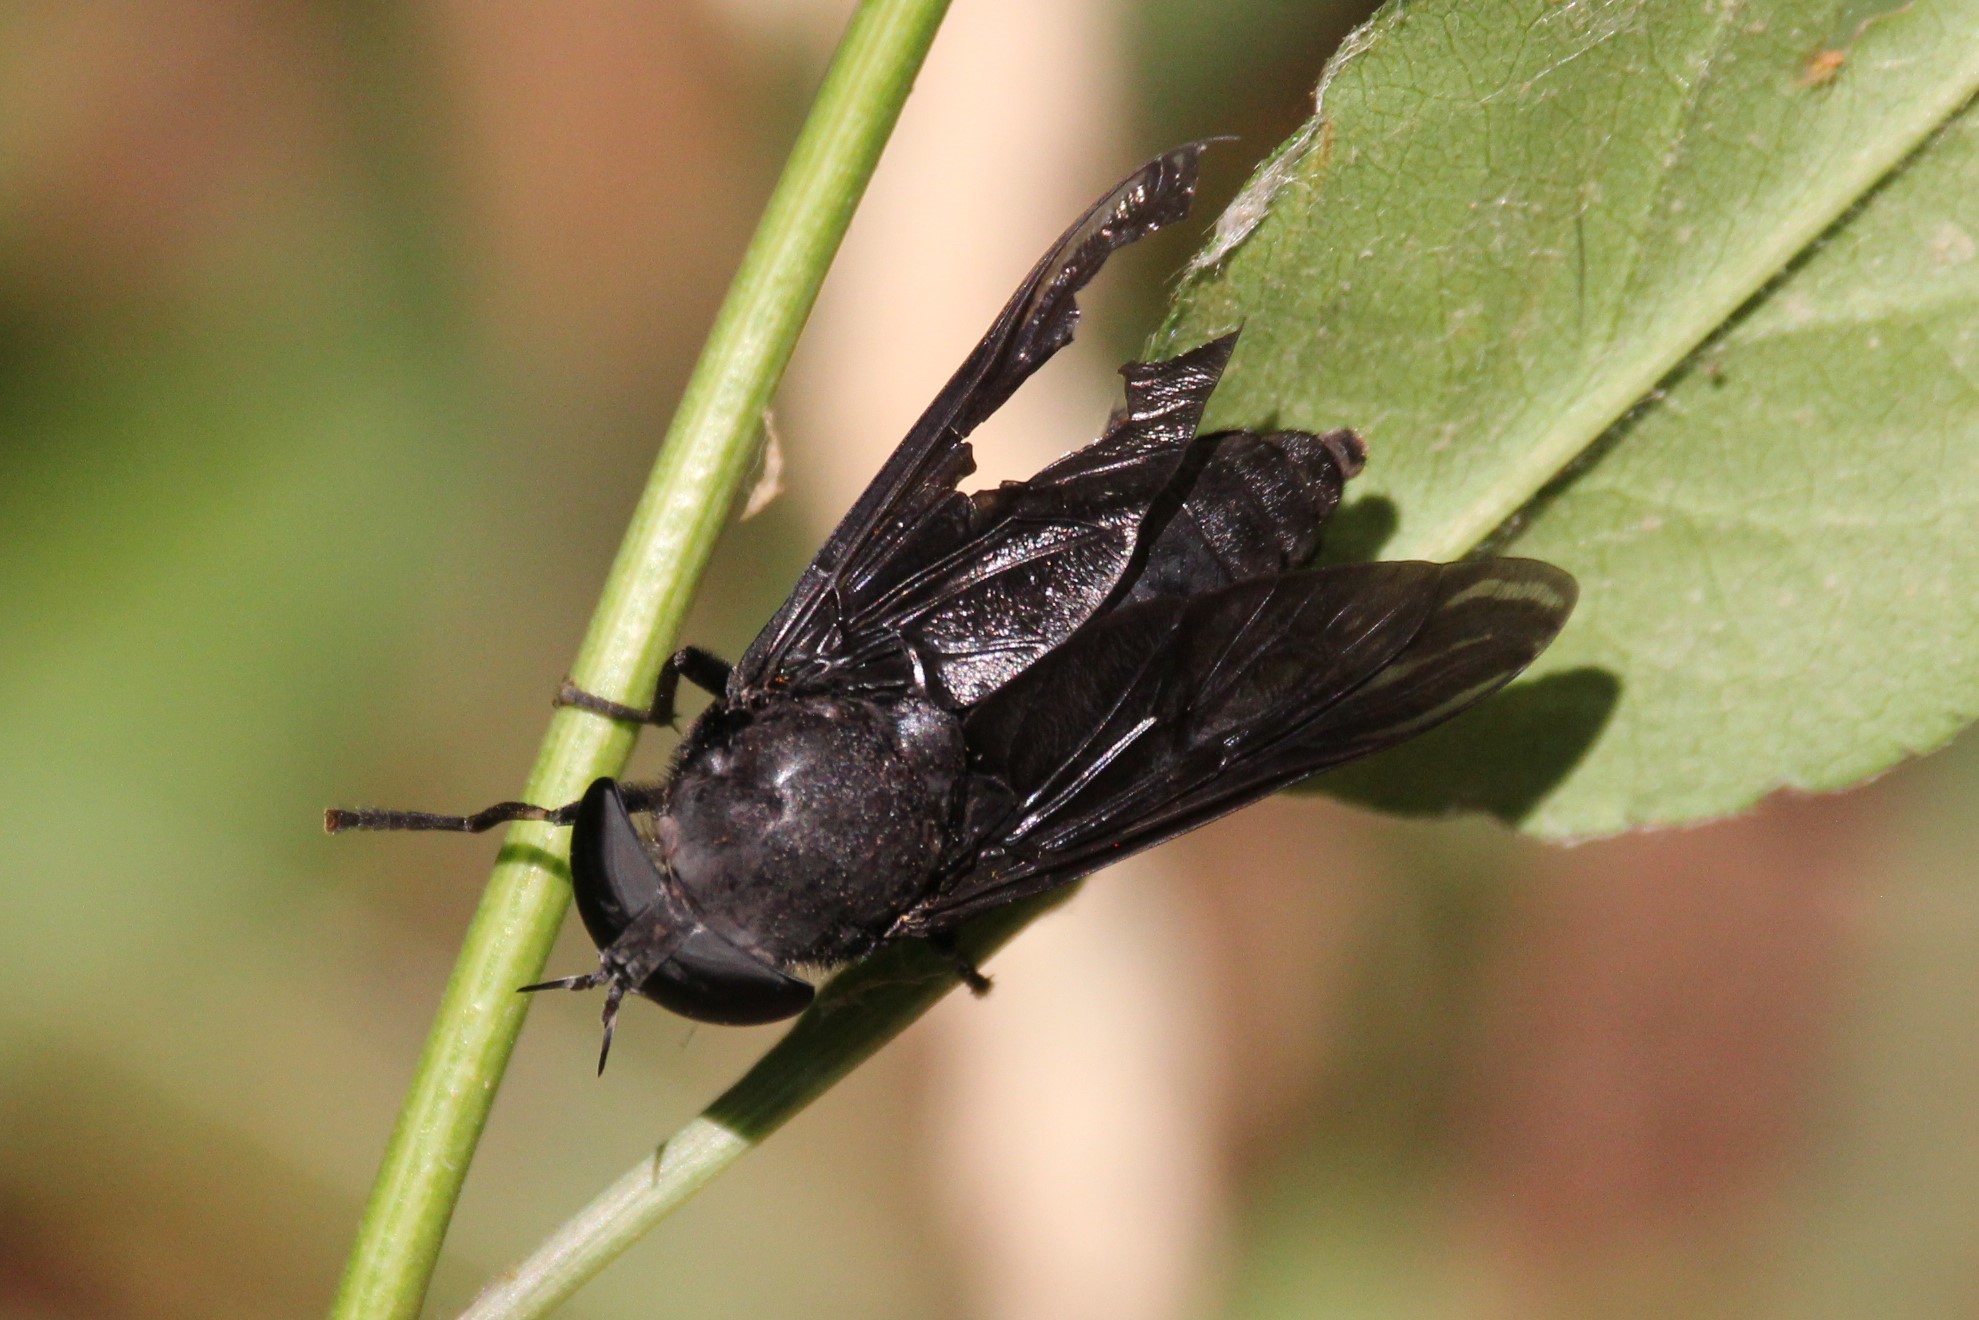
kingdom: Animalia
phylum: Arthropoda
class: Insecta
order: Diptera
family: Tabanidae
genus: Tabanus
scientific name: Tabanus atratus
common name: Black horse fly
